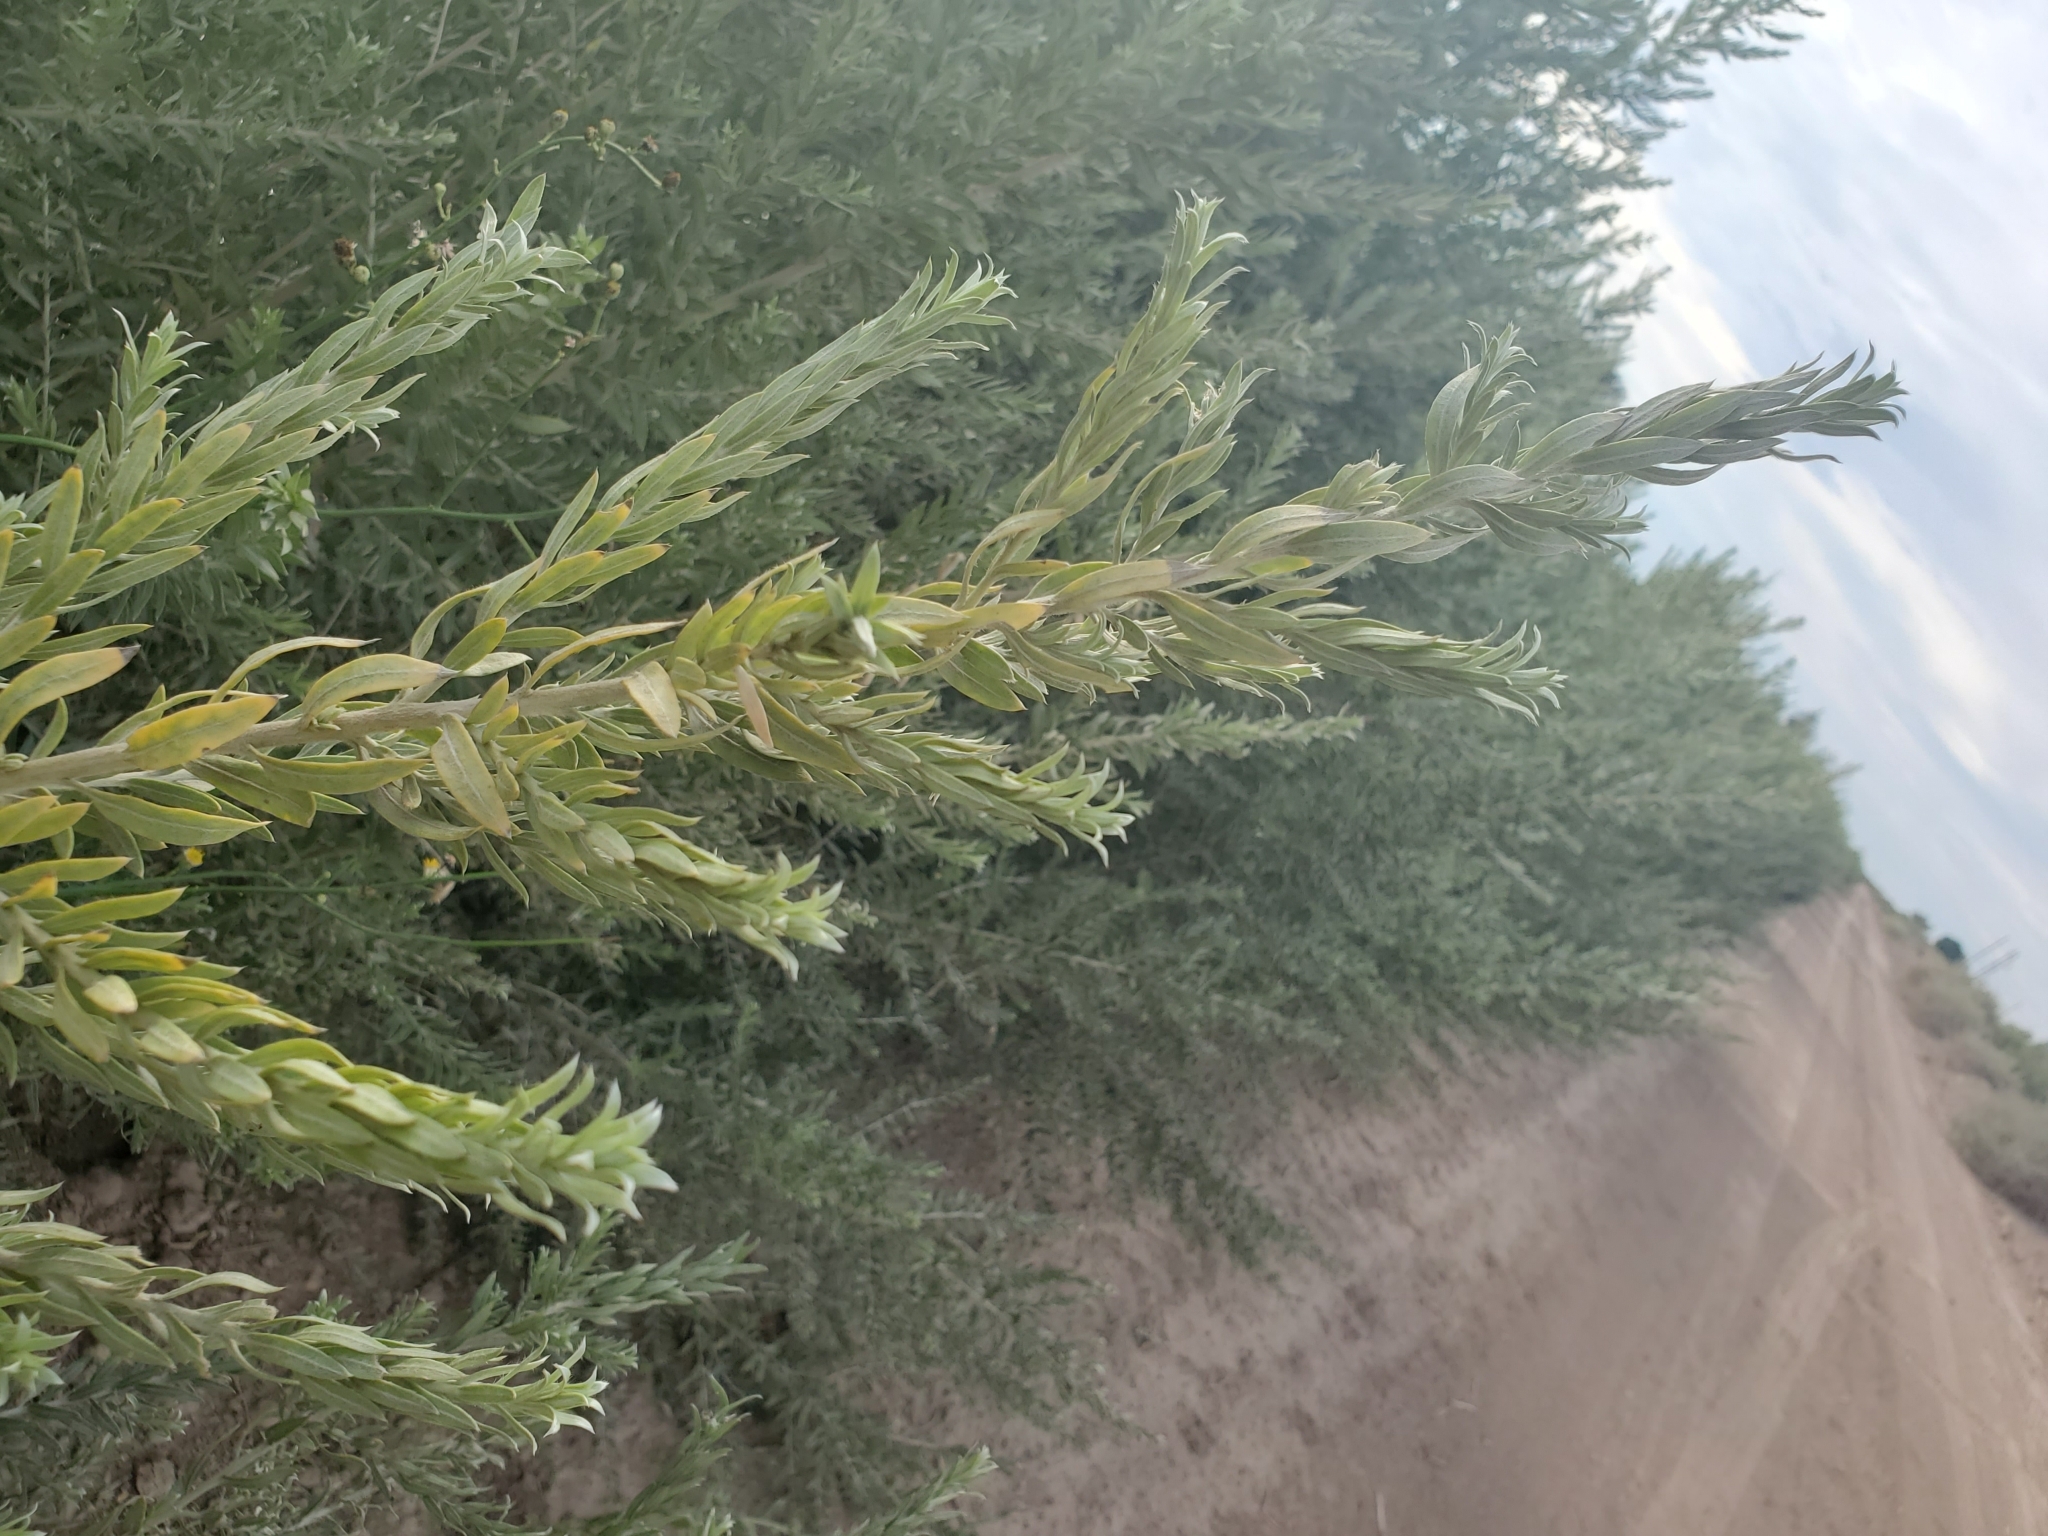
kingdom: Plantae
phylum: Tracheophyta
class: Magnoliopsida
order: Asterales
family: Asteraceae
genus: Pluchea
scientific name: Pluchea sericea
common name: Arrow-weed
